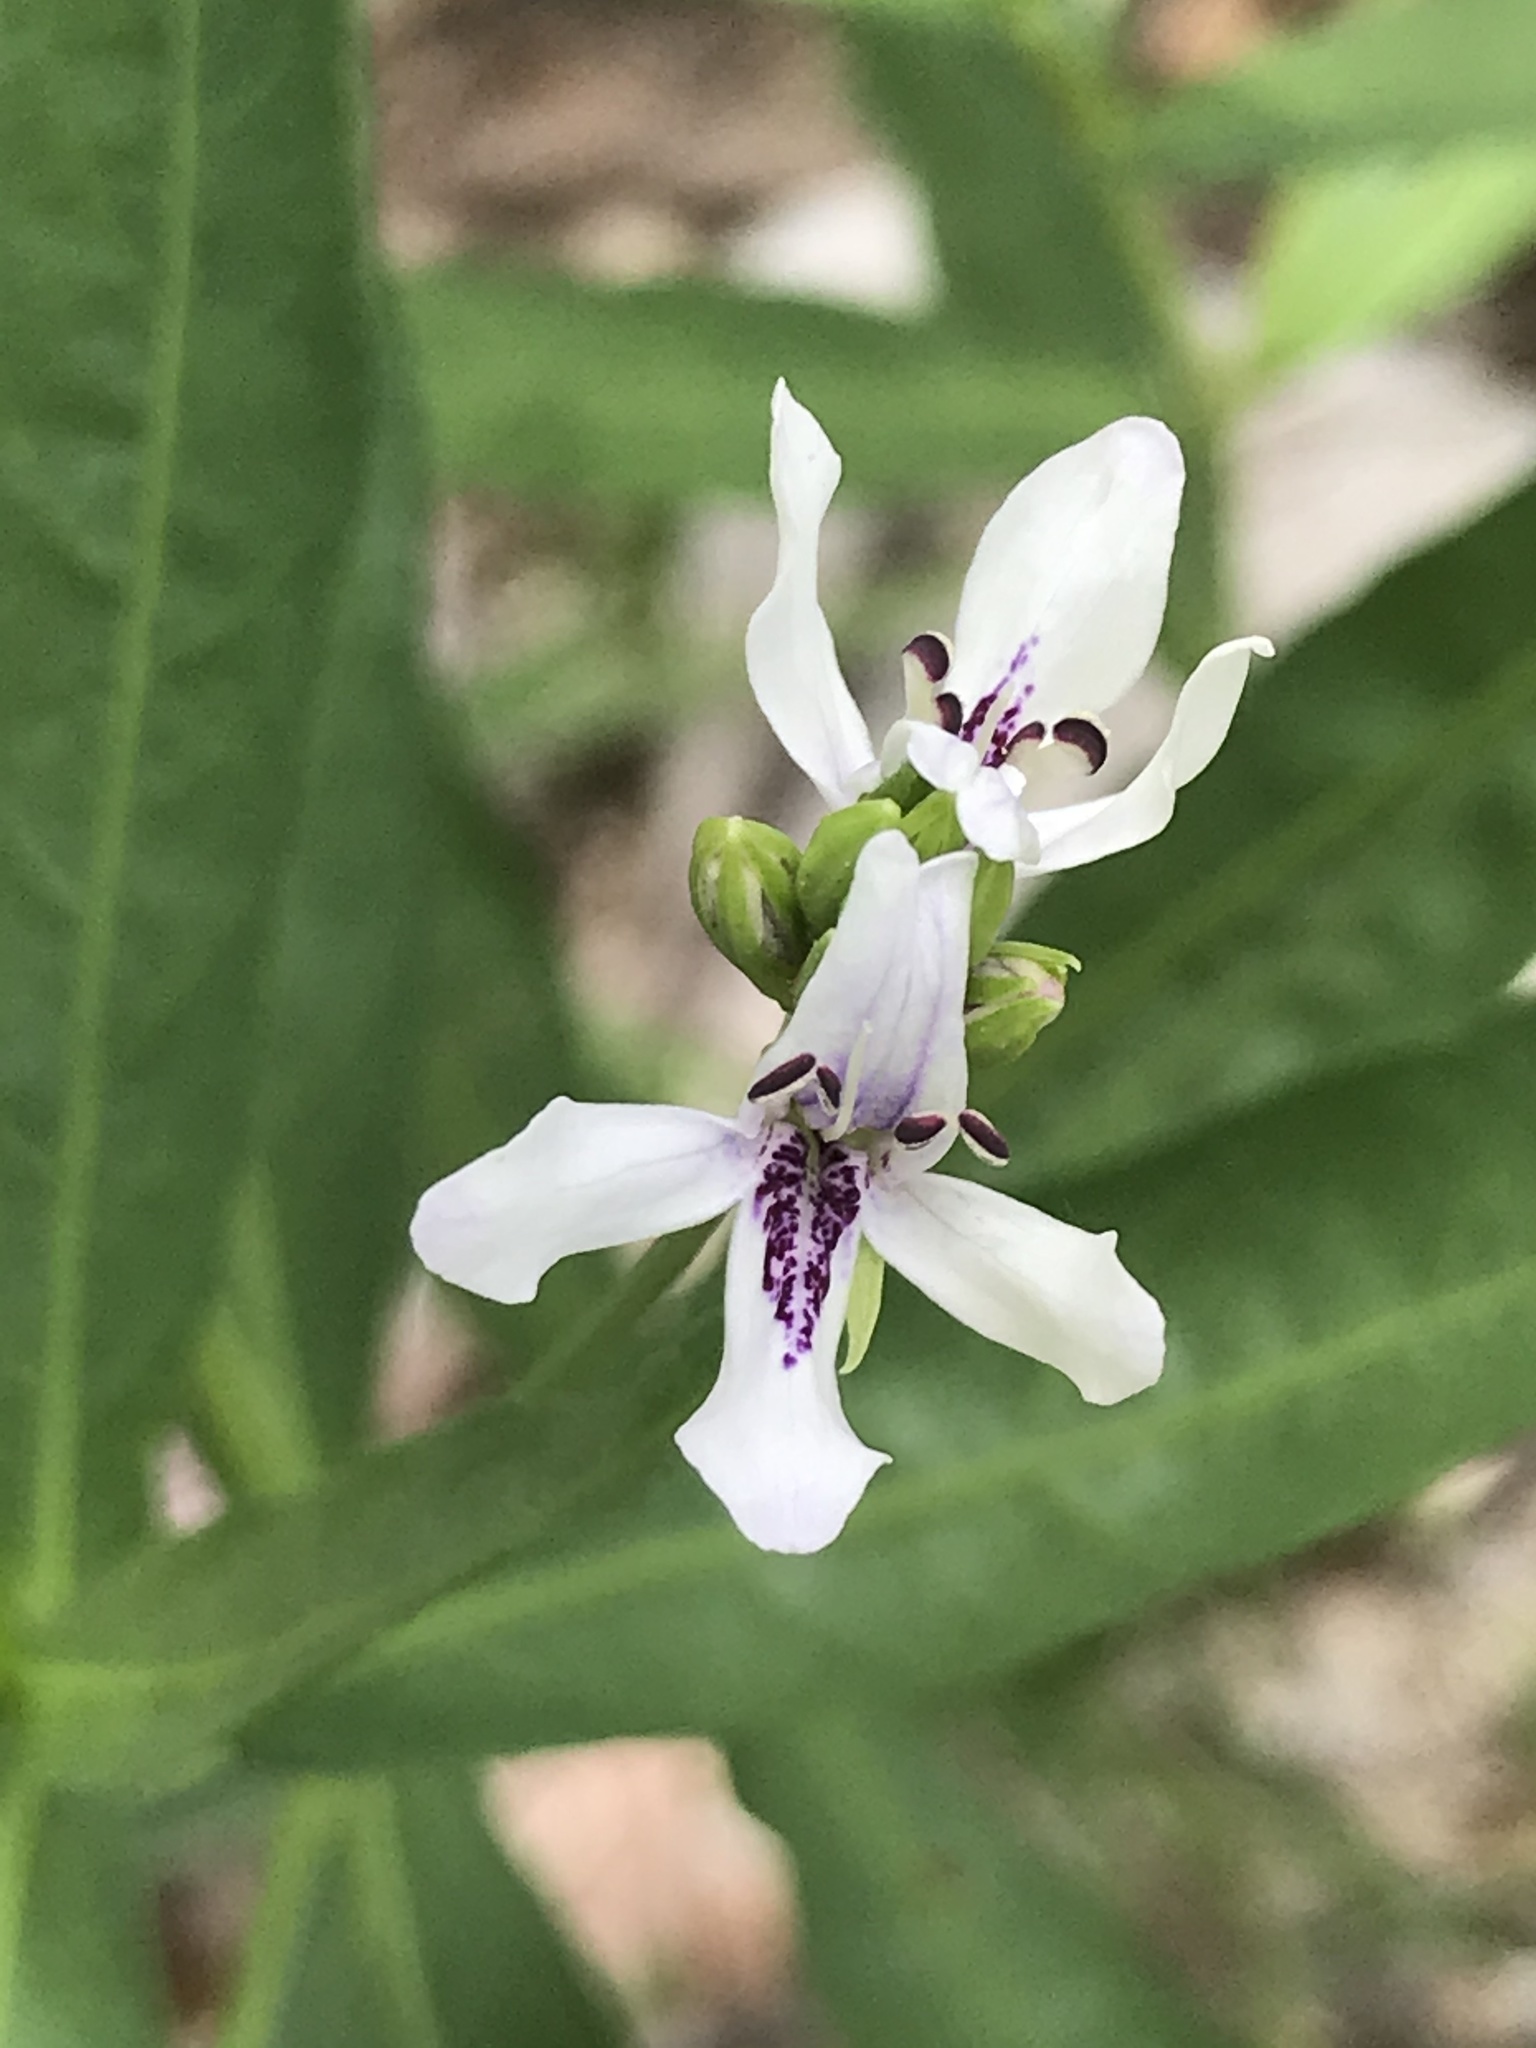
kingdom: Plantae
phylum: Tracheophyta
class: Magnoliopsida
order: Lamiales
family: Acanthaceae
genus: Dianthera
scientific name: Dianthera americana
